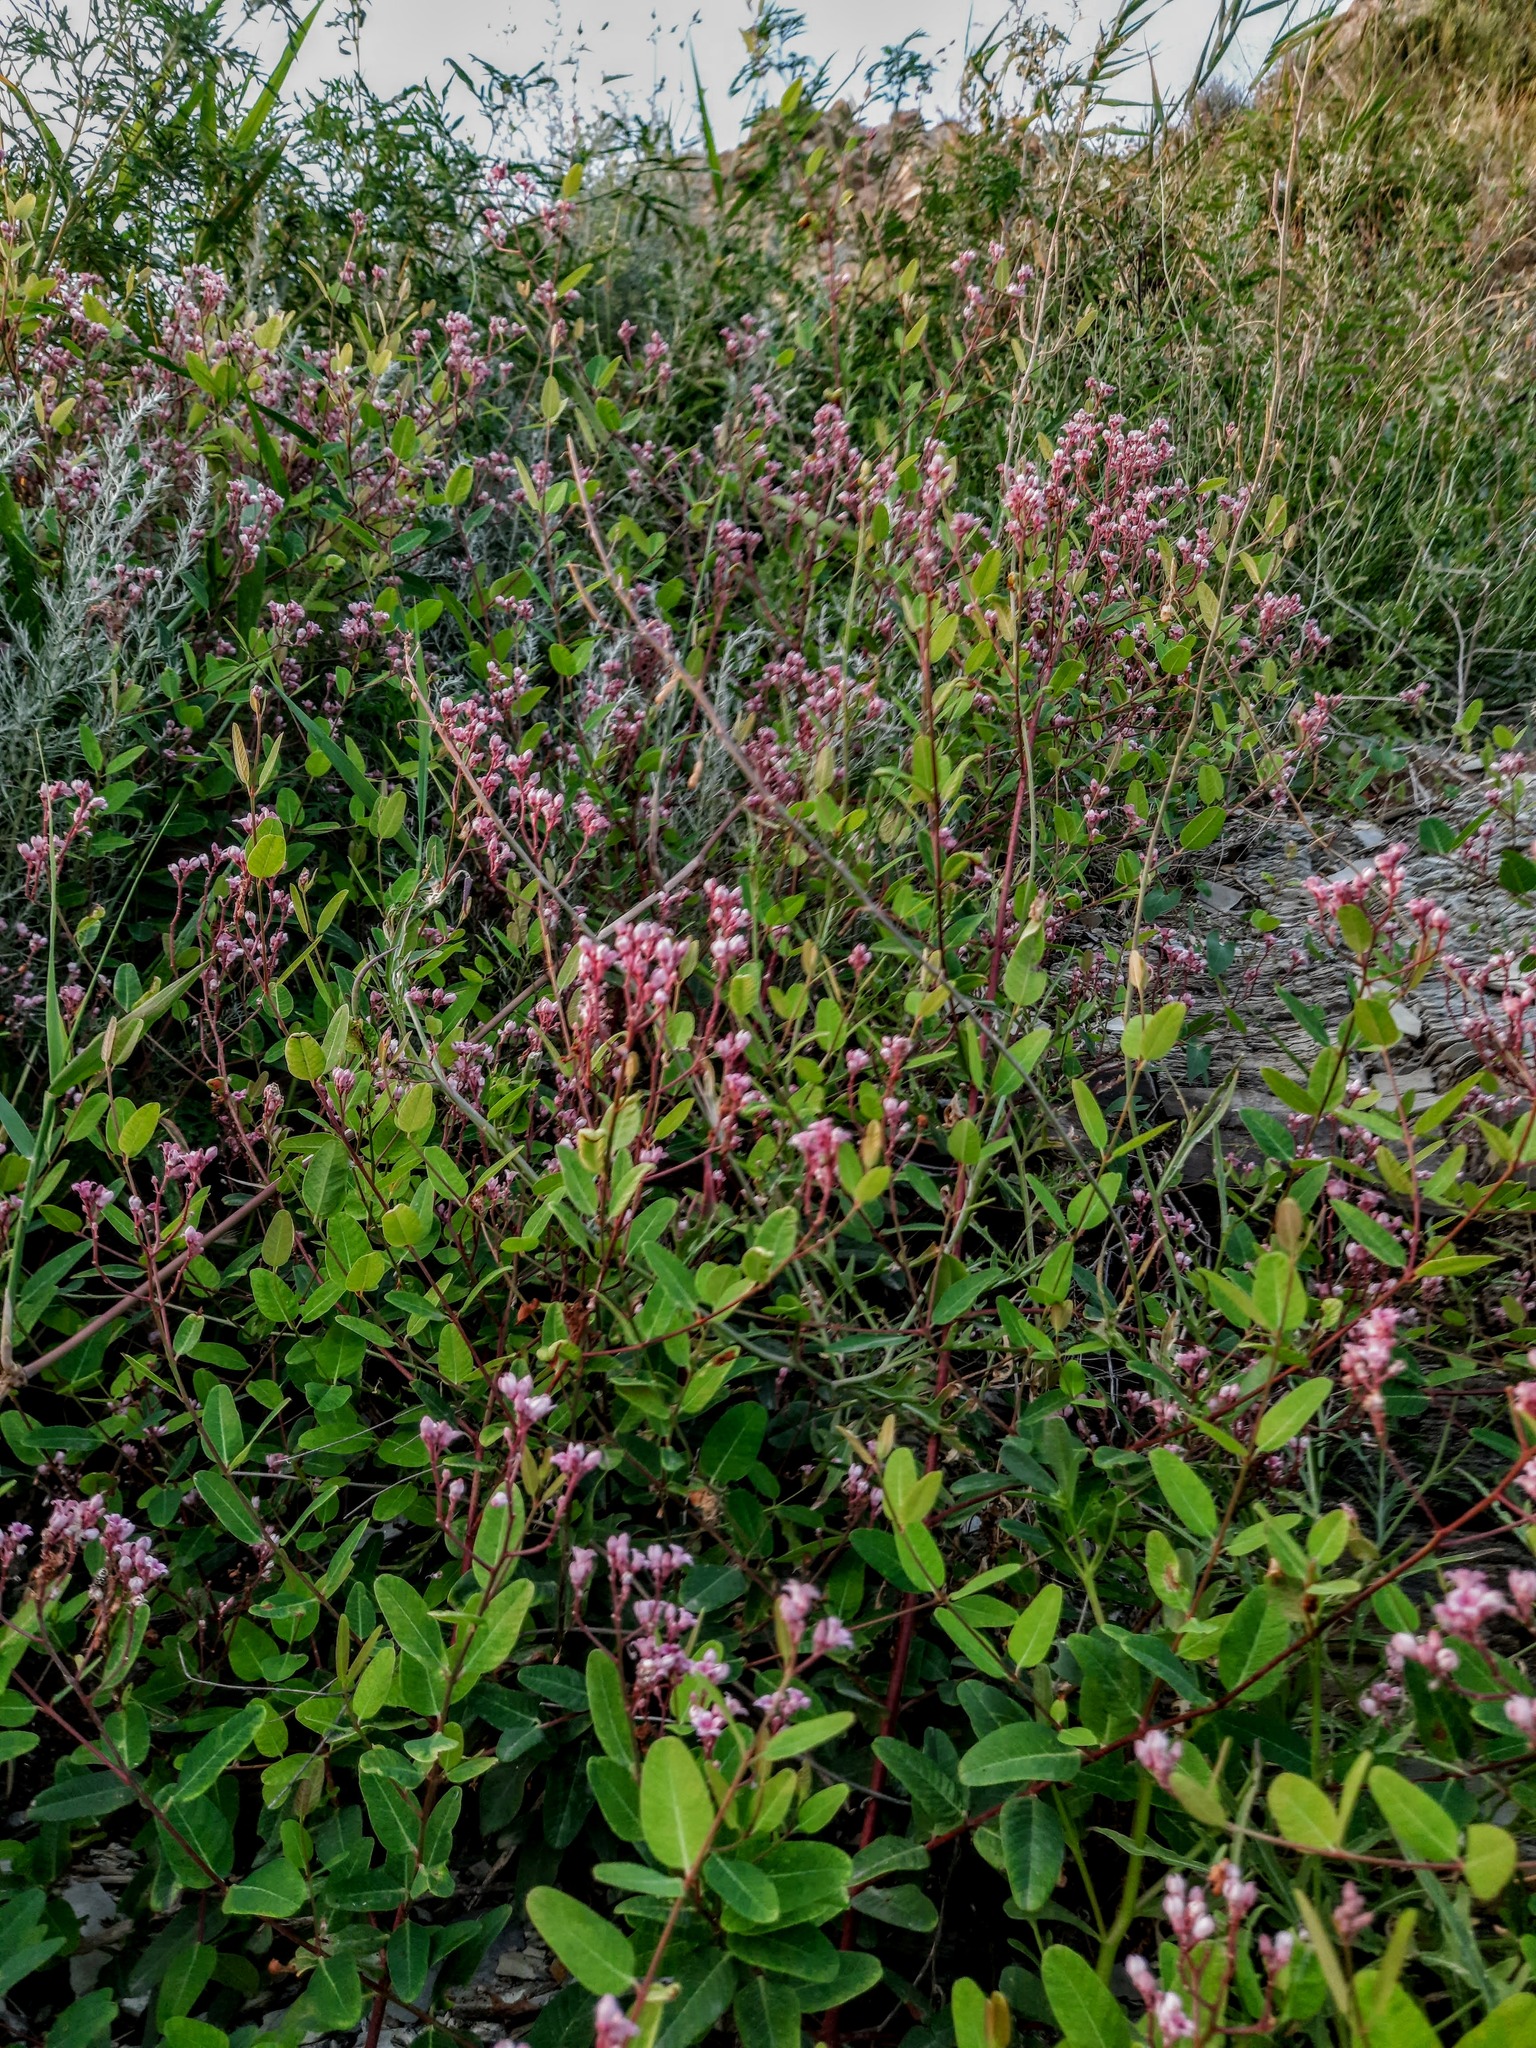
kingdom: Plantae
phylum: Tracheophyta
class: Magnoliopsida
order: Gentianales
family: Apocynaceae
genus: Poacynum
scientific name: Poacynum venetum
